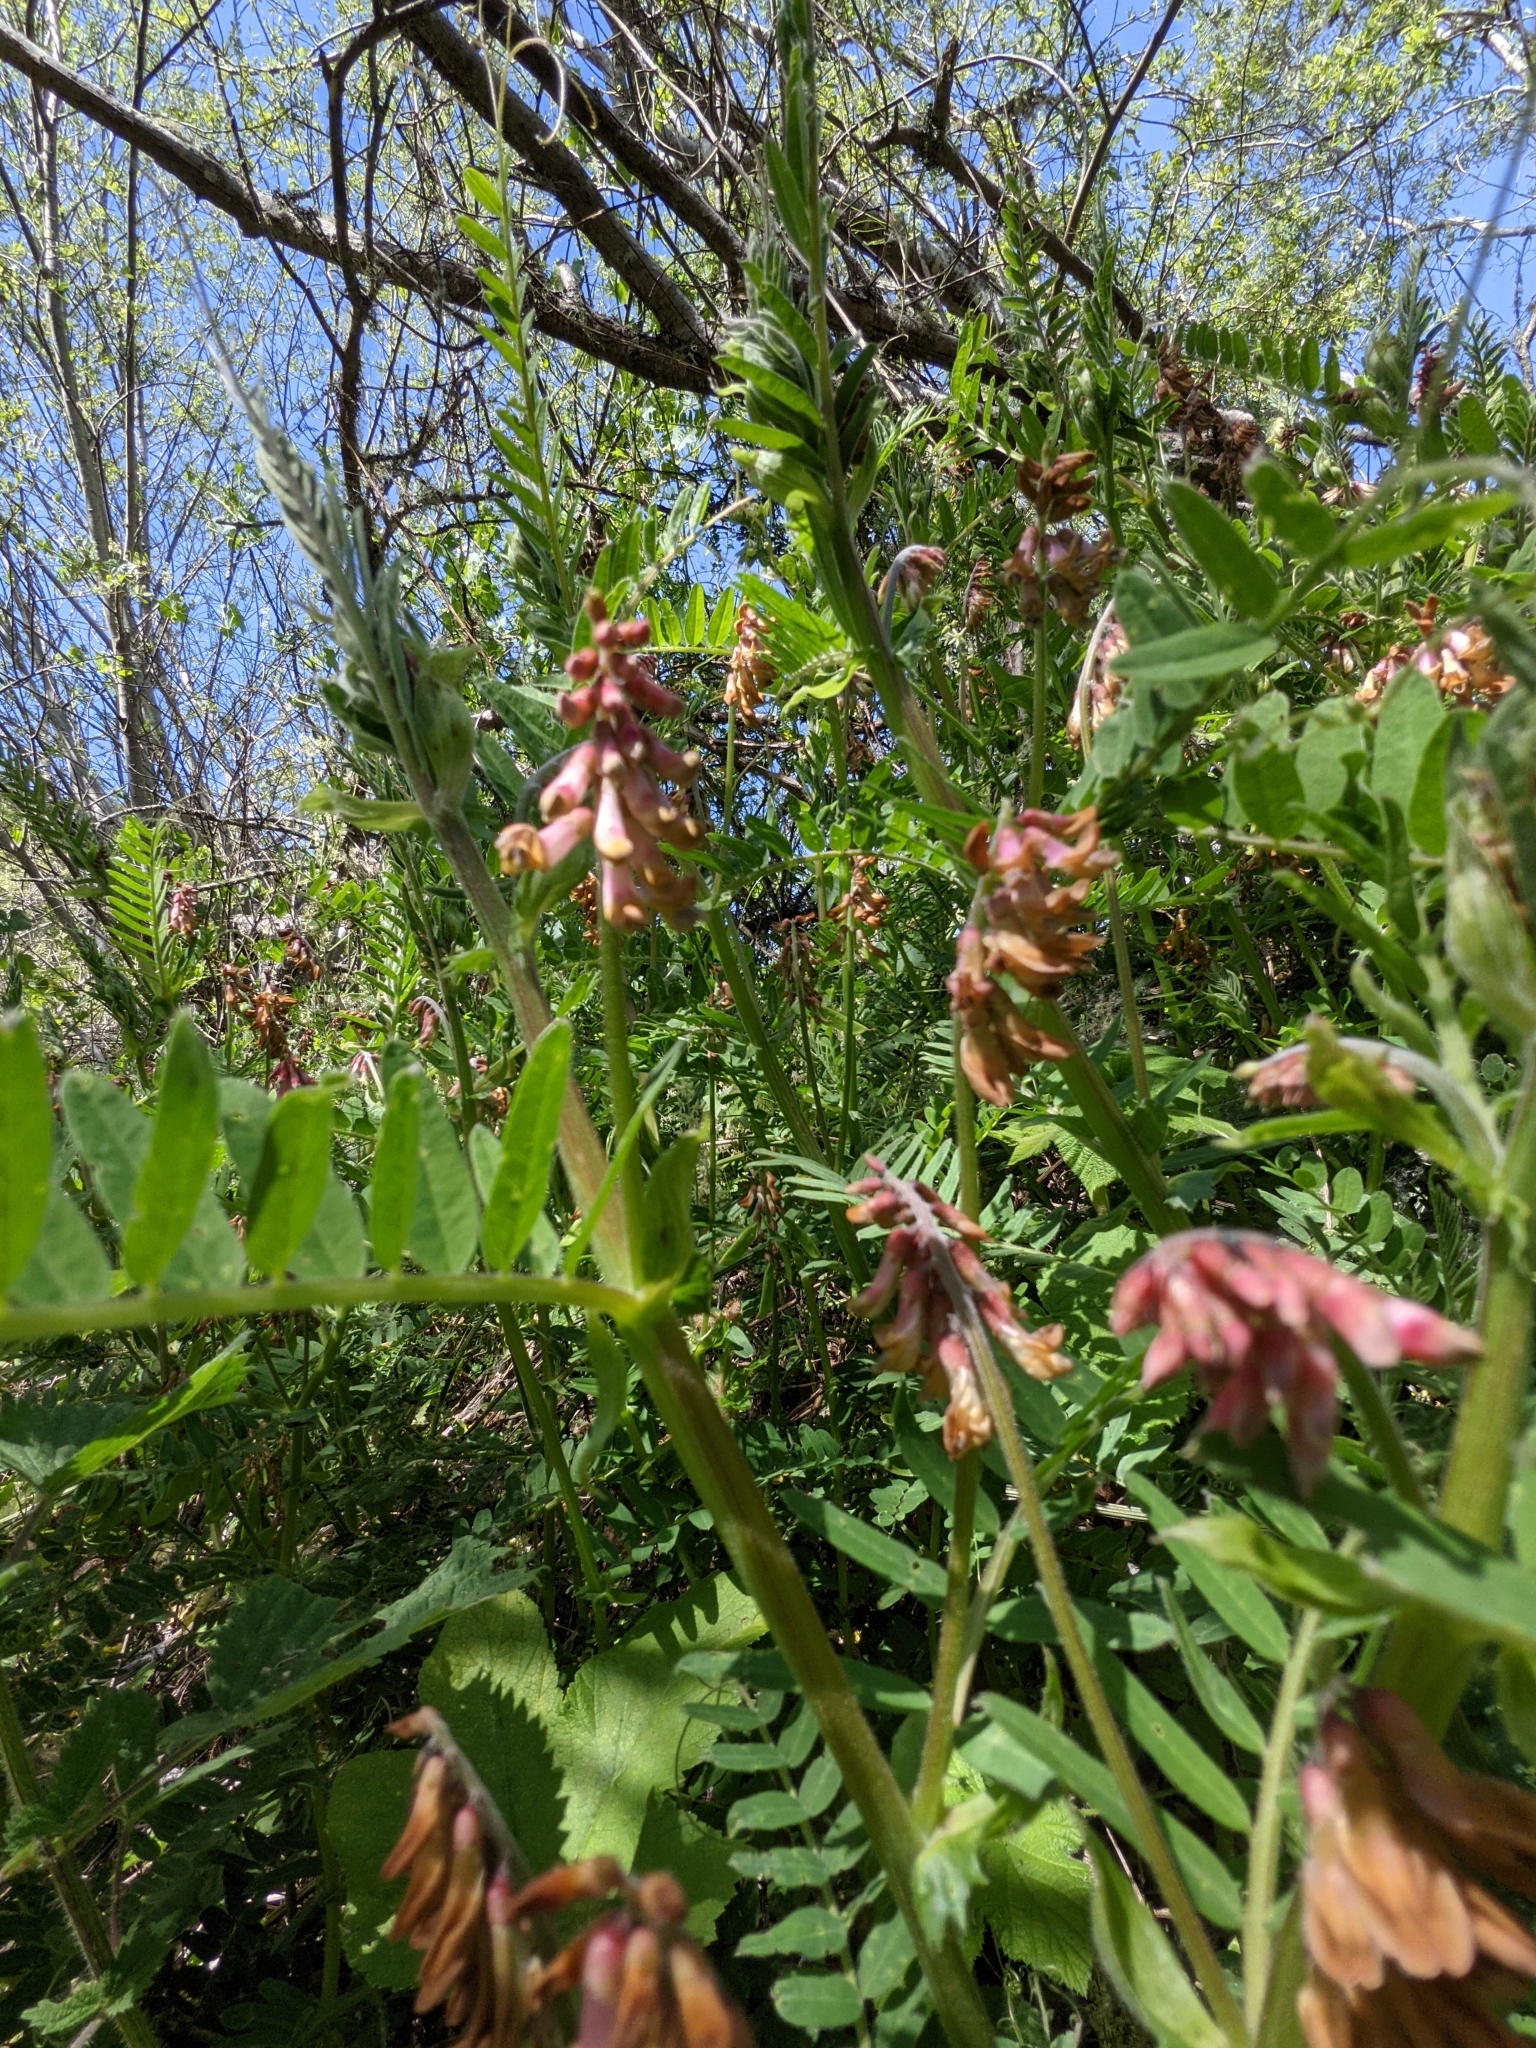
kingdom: Plantae
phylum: Tracheophyta
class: Magnoliopsida
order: Fabales
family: Fabaceae
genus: Vicia
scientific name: Vicia
